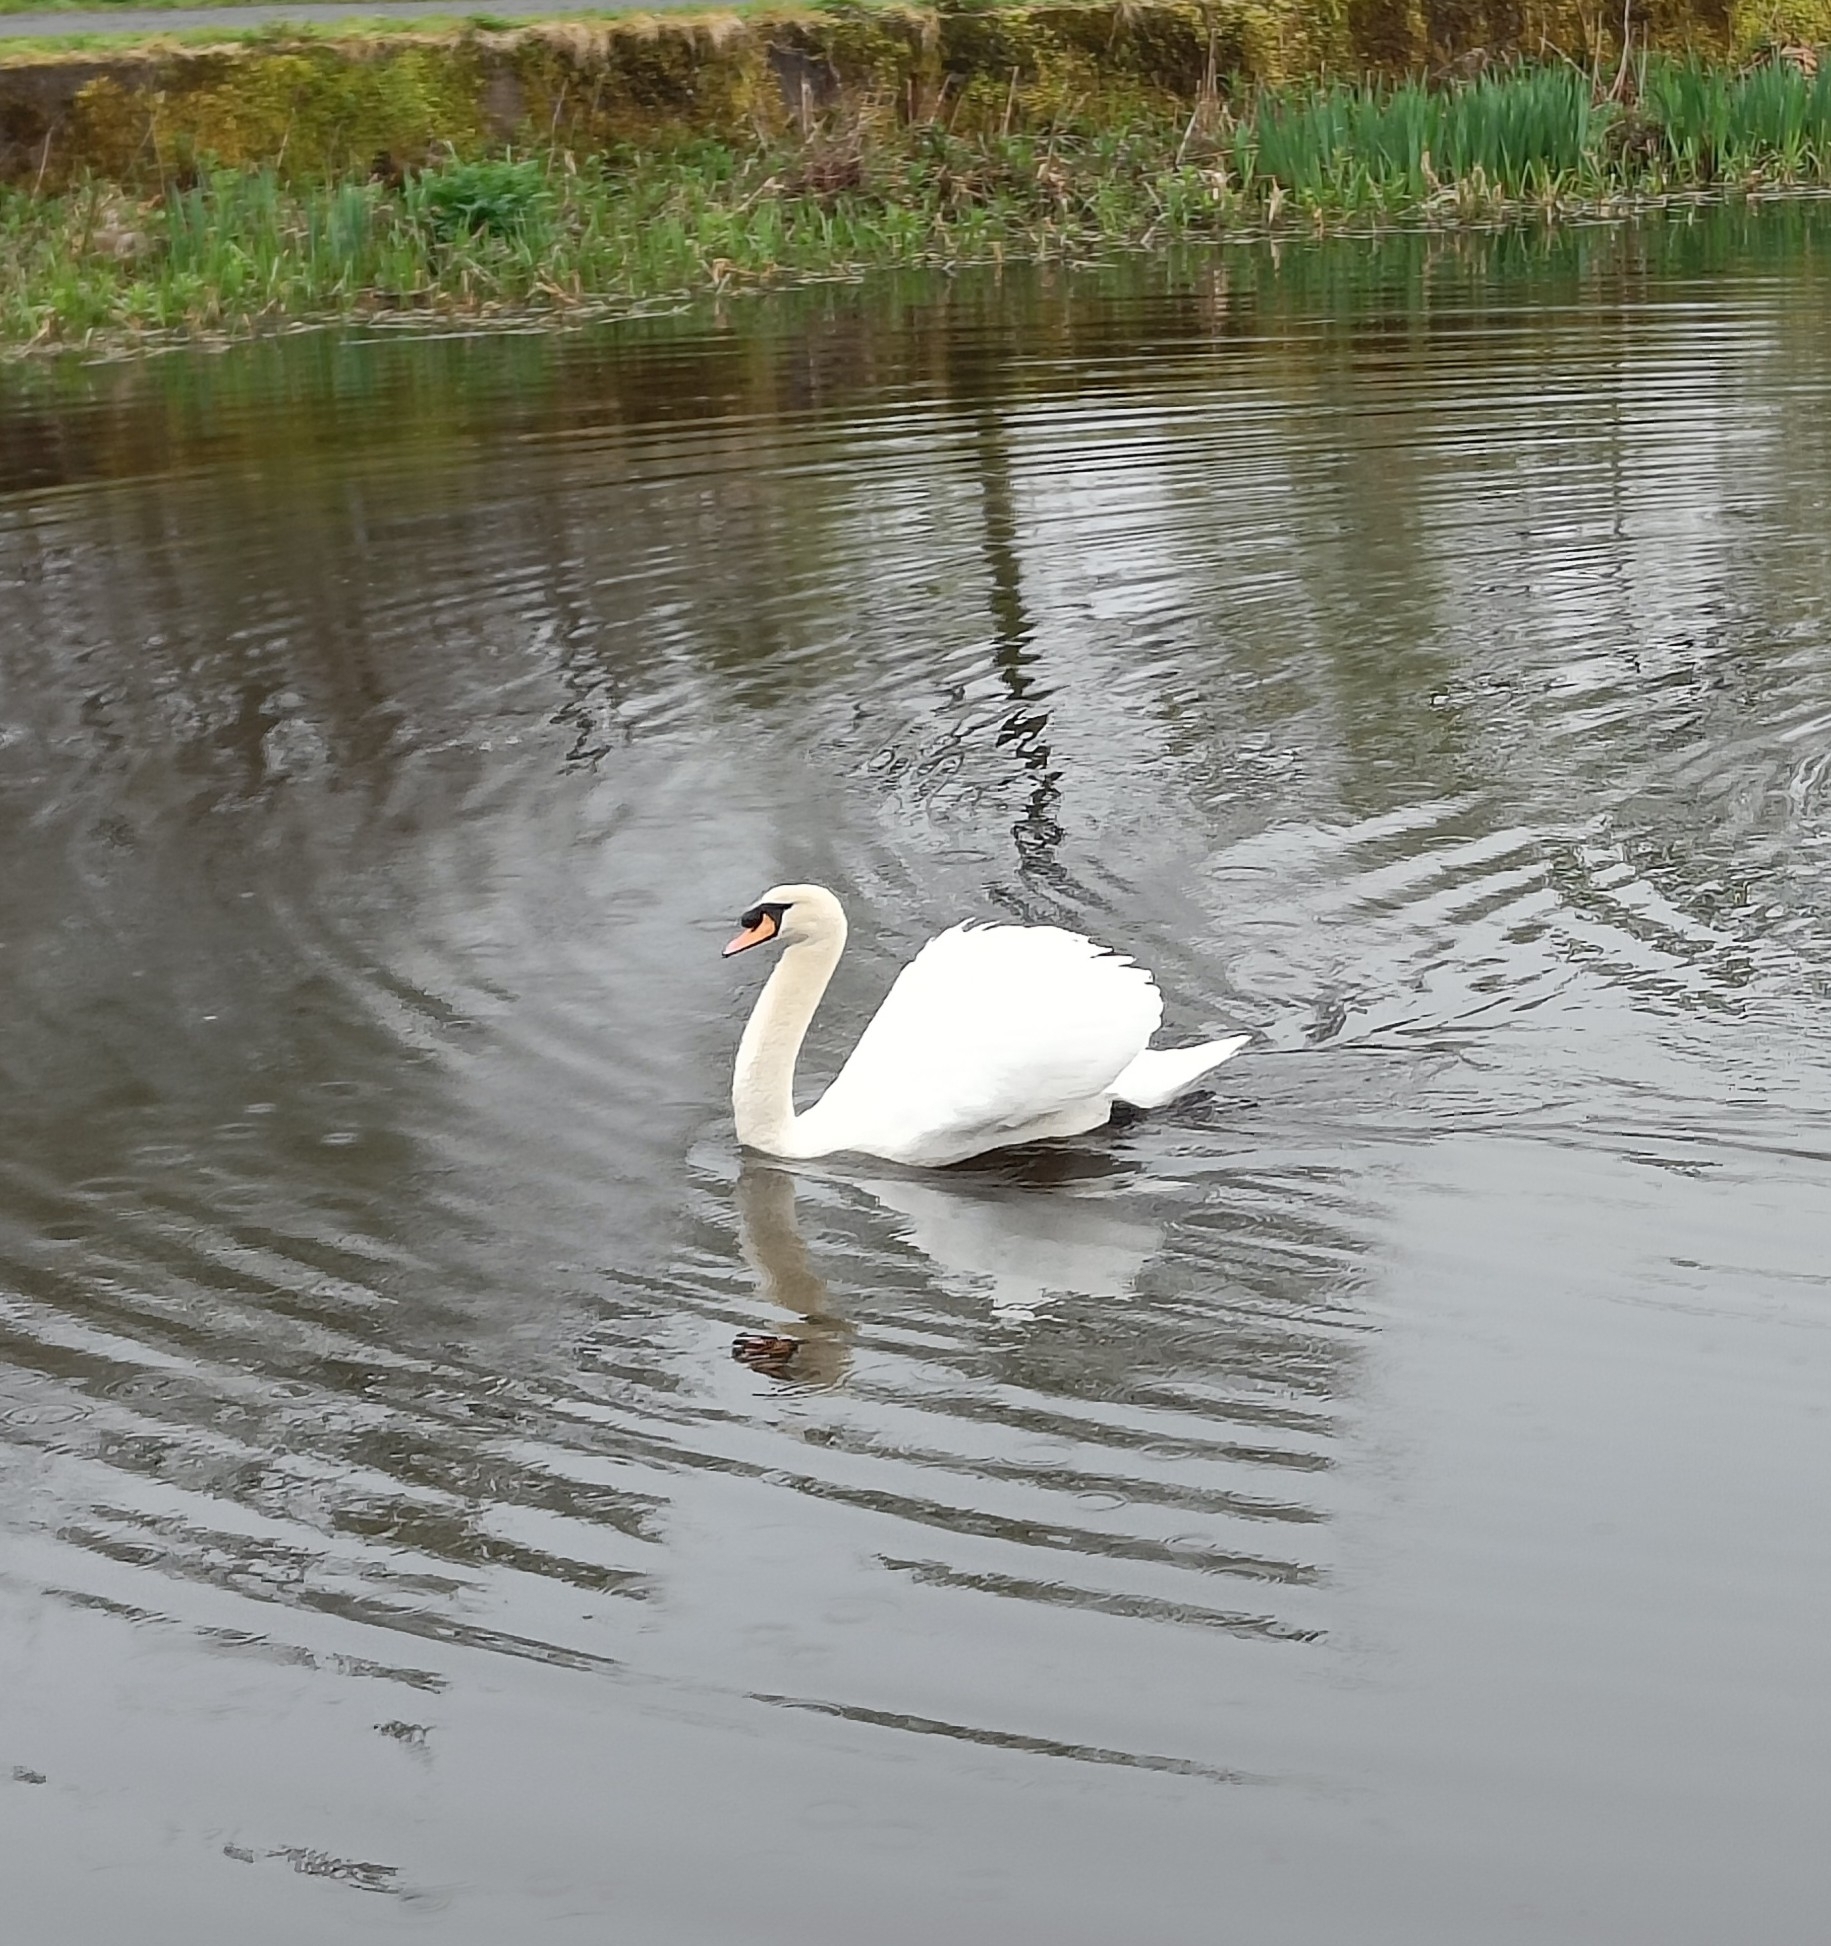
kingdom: Animalia
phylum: Chordata
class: Aves
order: Anseriformes
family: Anatidae
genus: Cygnus
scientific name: Cygnus olor
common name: Mute swan
